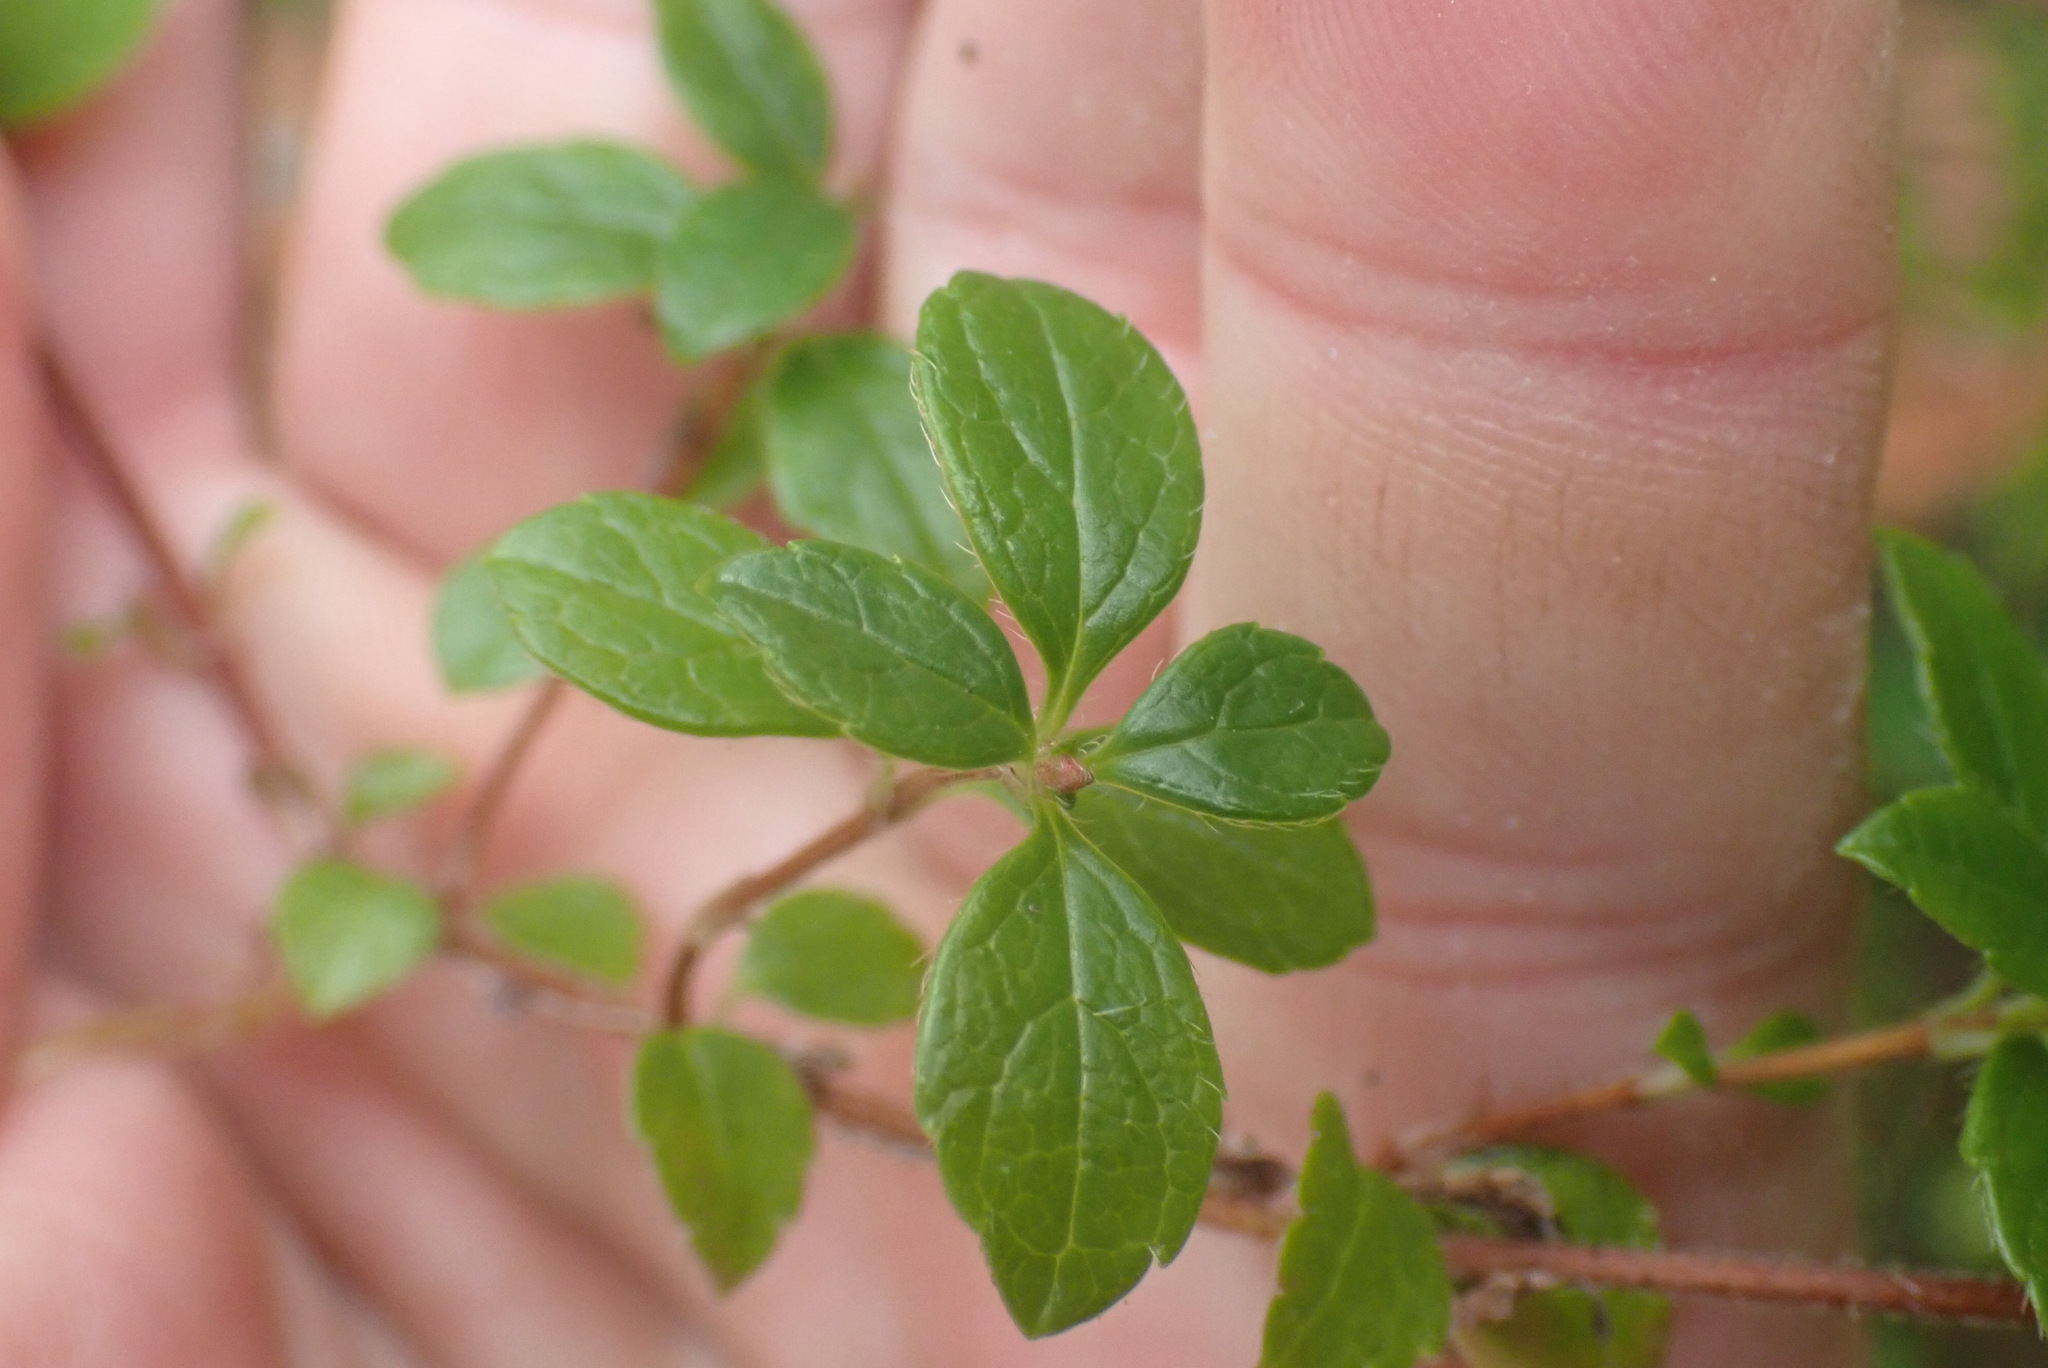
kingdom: Plantae
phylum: Tracheophyta
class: Magnoliopsida
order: Dipsacales
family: Caprifoliaceae
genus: Linnaea
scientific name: Linnaea borealis
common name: Twinflower
